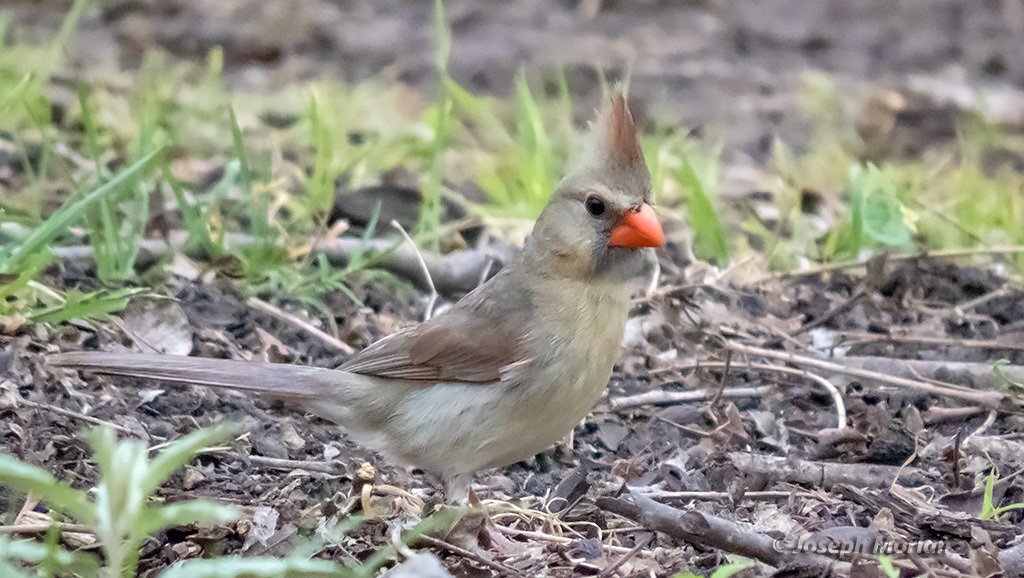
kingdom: Animalia
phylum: Chordata
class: Aves
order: Passeriformes
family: Cardinalidae
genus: Cardinalis
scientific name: Cardinalis cardinalis
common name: Northern cardinal
